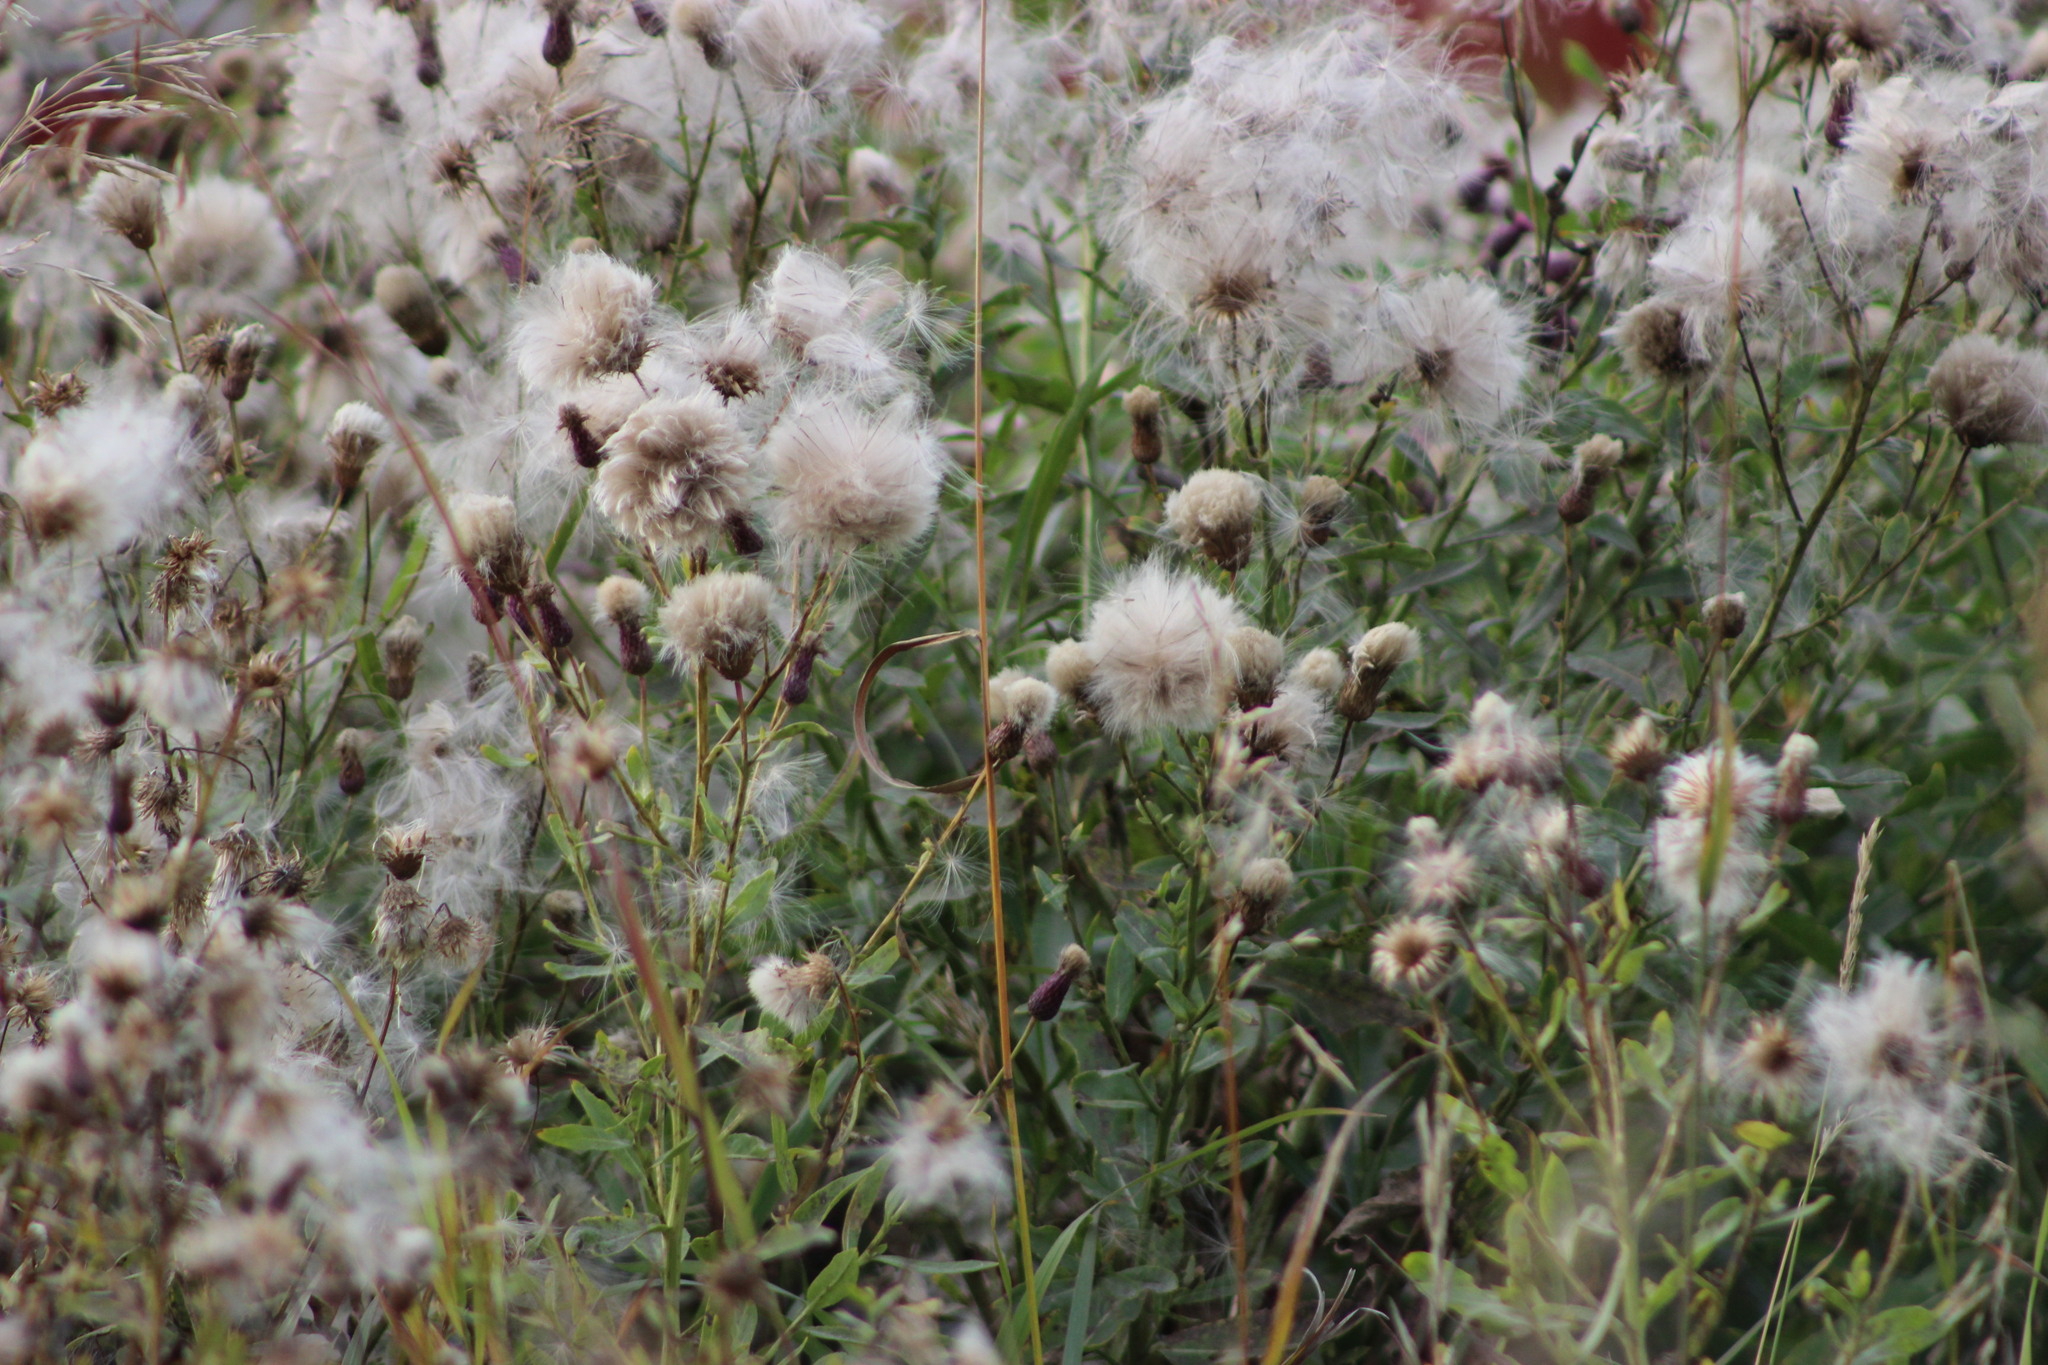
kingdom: Plantae
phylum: Tracheophyta
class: Magnoliopsida
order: Asterales
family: Asteraceae
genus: Cirsium
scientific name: Cirsium arvense
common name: Creeping thistle
